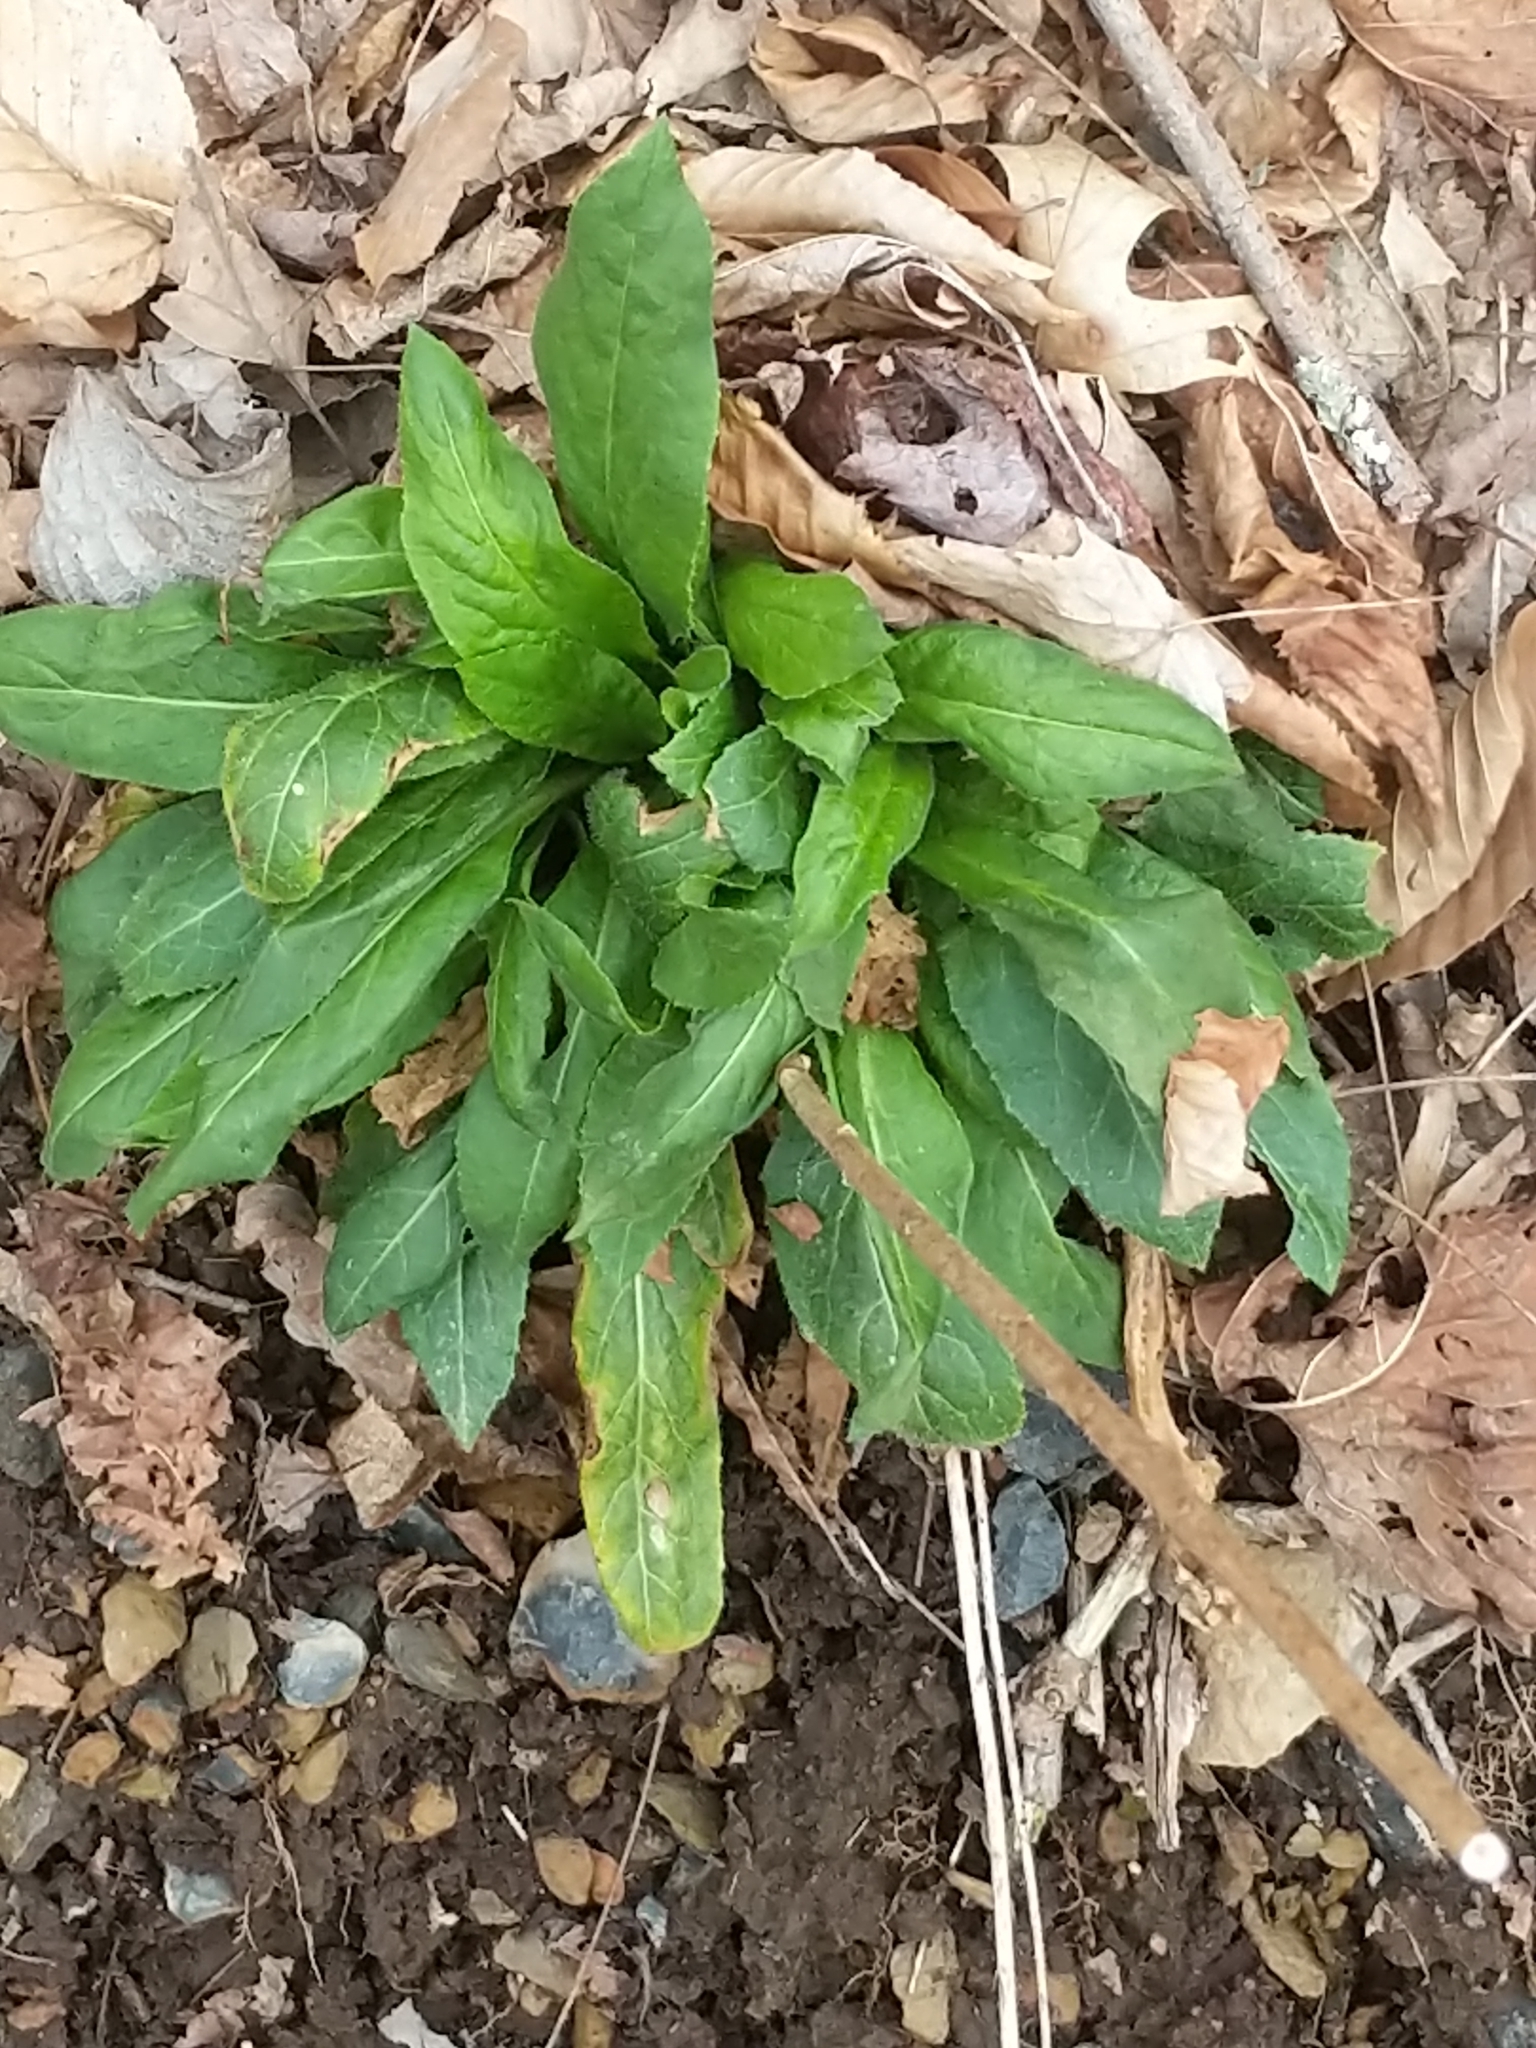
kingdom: Plantae
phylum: Tracheophyta
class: Magnoliopsida
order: Brassicales
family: Brassicaceae
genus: Hesperis
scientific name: Hesperis matronalis
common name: Dame's-violet
